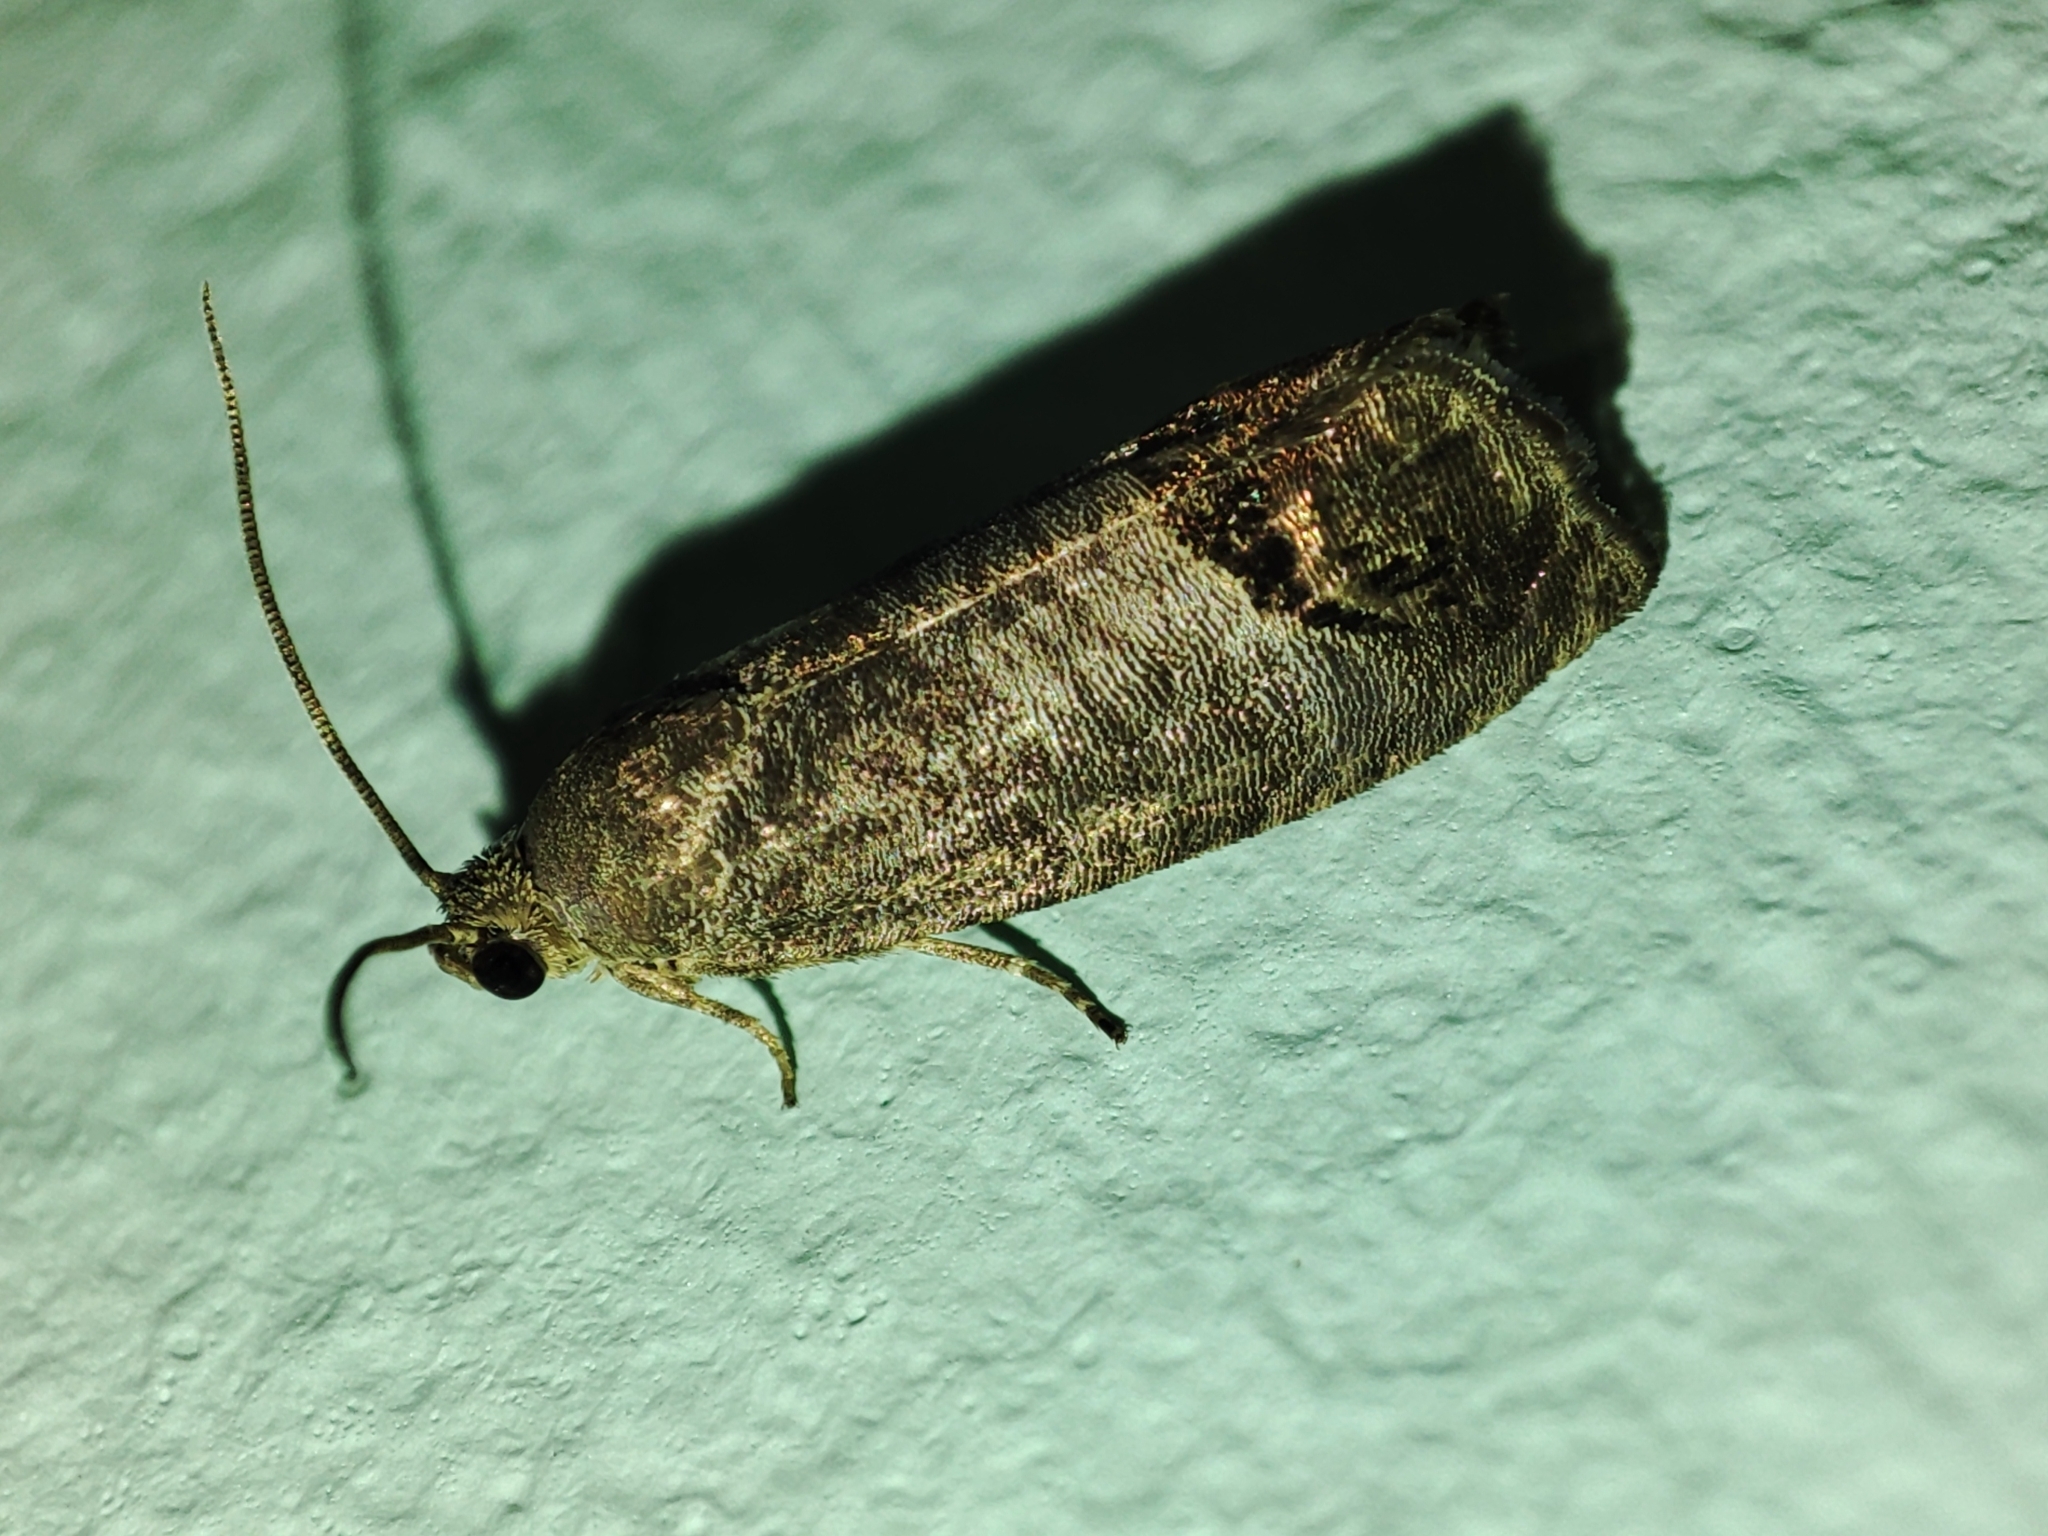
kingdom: Animalia
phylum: Arthropoda
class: Insecta
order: Lepidoptera
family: Tortricidae
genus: Cydia
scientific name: Cydia pomonella
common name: Codling moth
